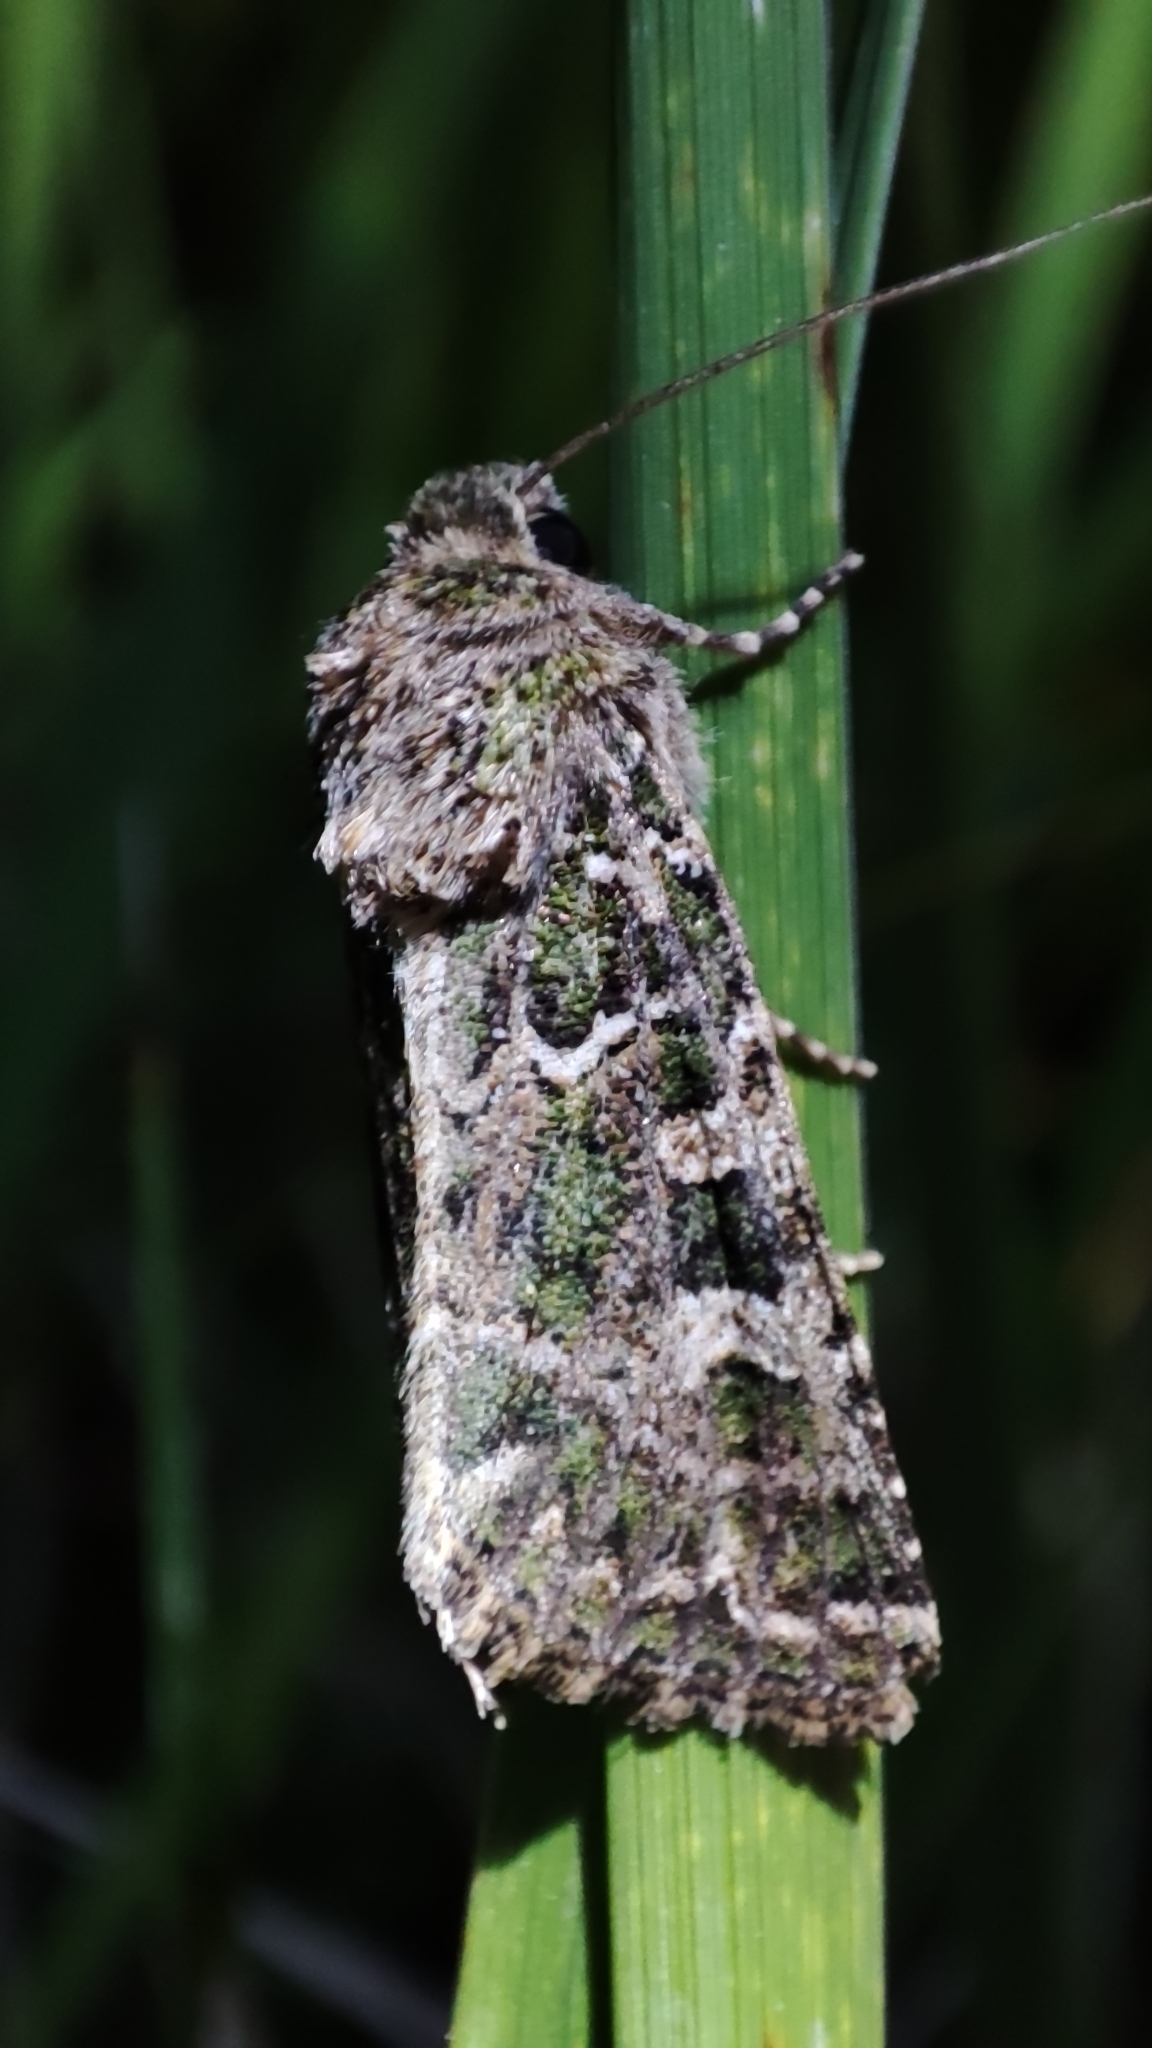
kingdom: Animalia
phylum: Arthropoda
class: Insecta
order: Lepidoptera
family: Noctuidae
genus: Hampsonicola
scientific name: Hampsonicola deccerti
